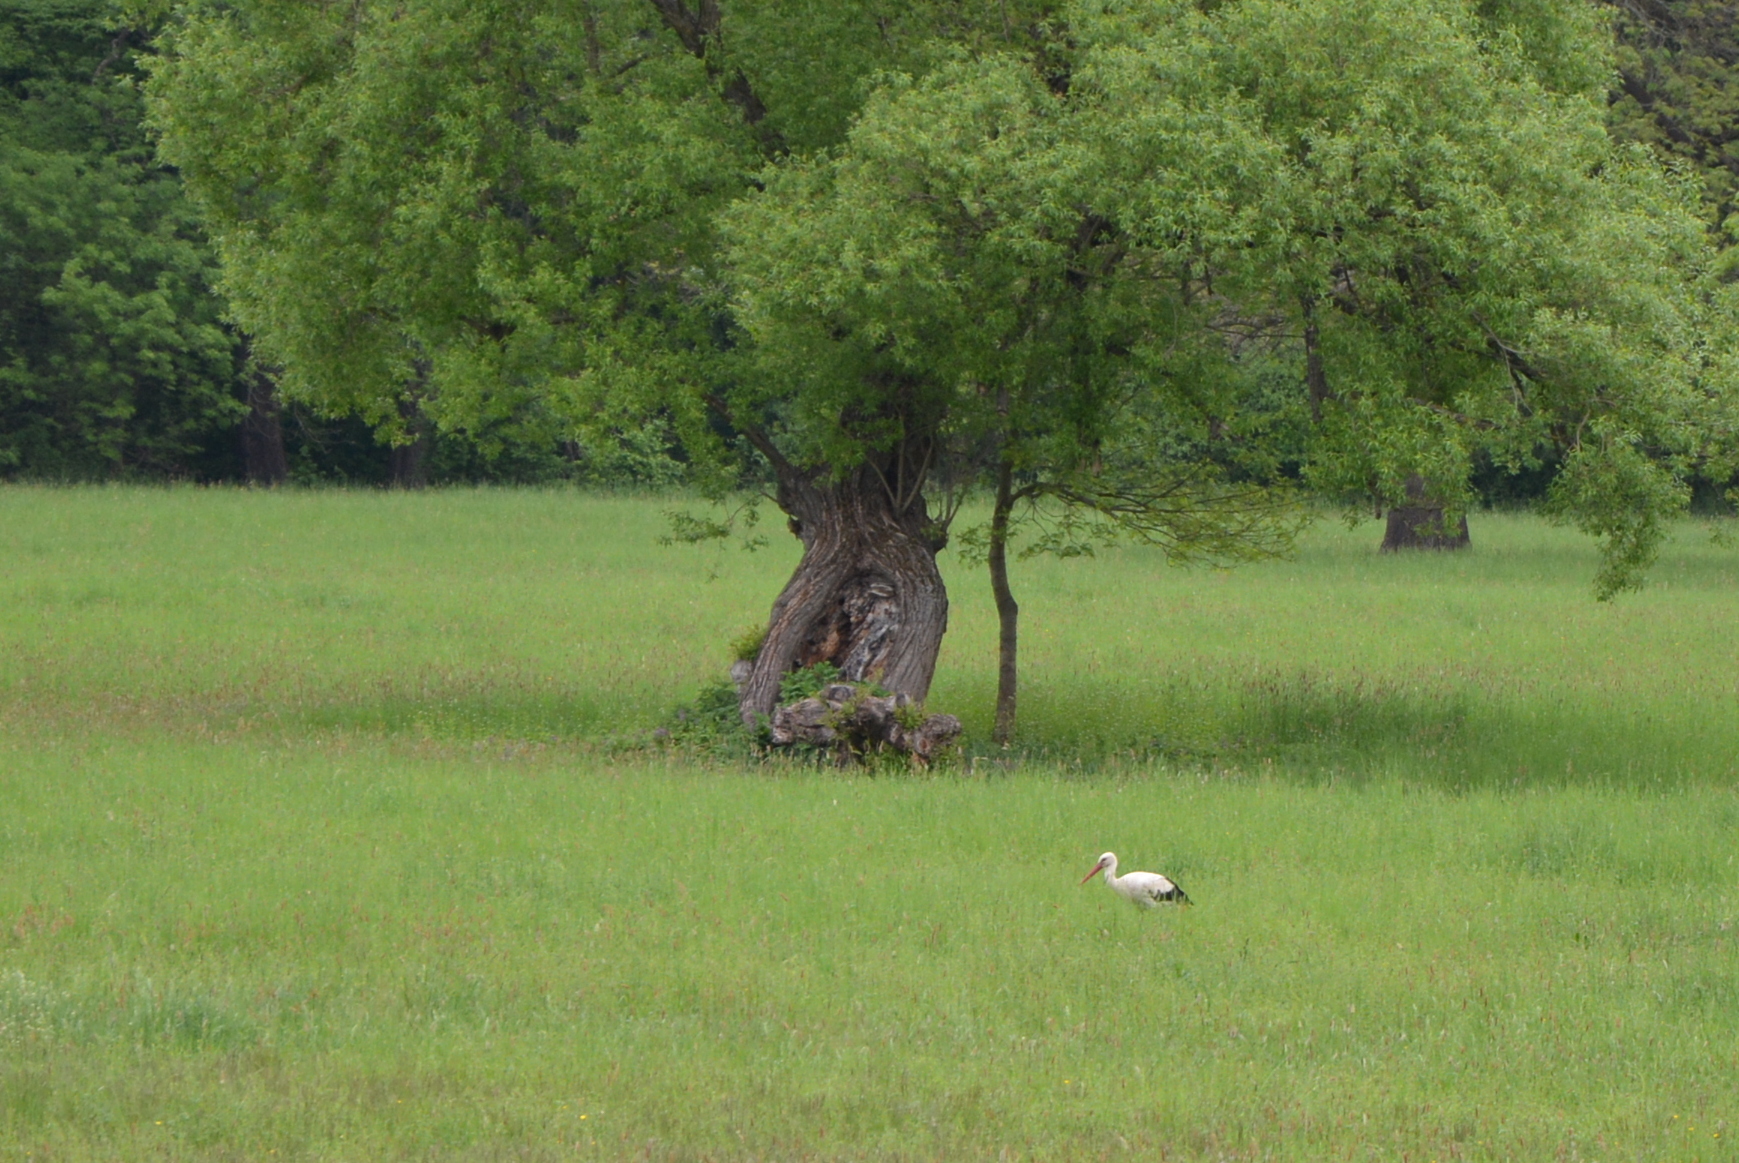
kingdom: Animalia
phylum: Chordata
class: Aves
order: Ciconiiformes
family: Ciconiidae
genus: Ciconia
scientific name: Ciconia ciconia
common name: White stork
